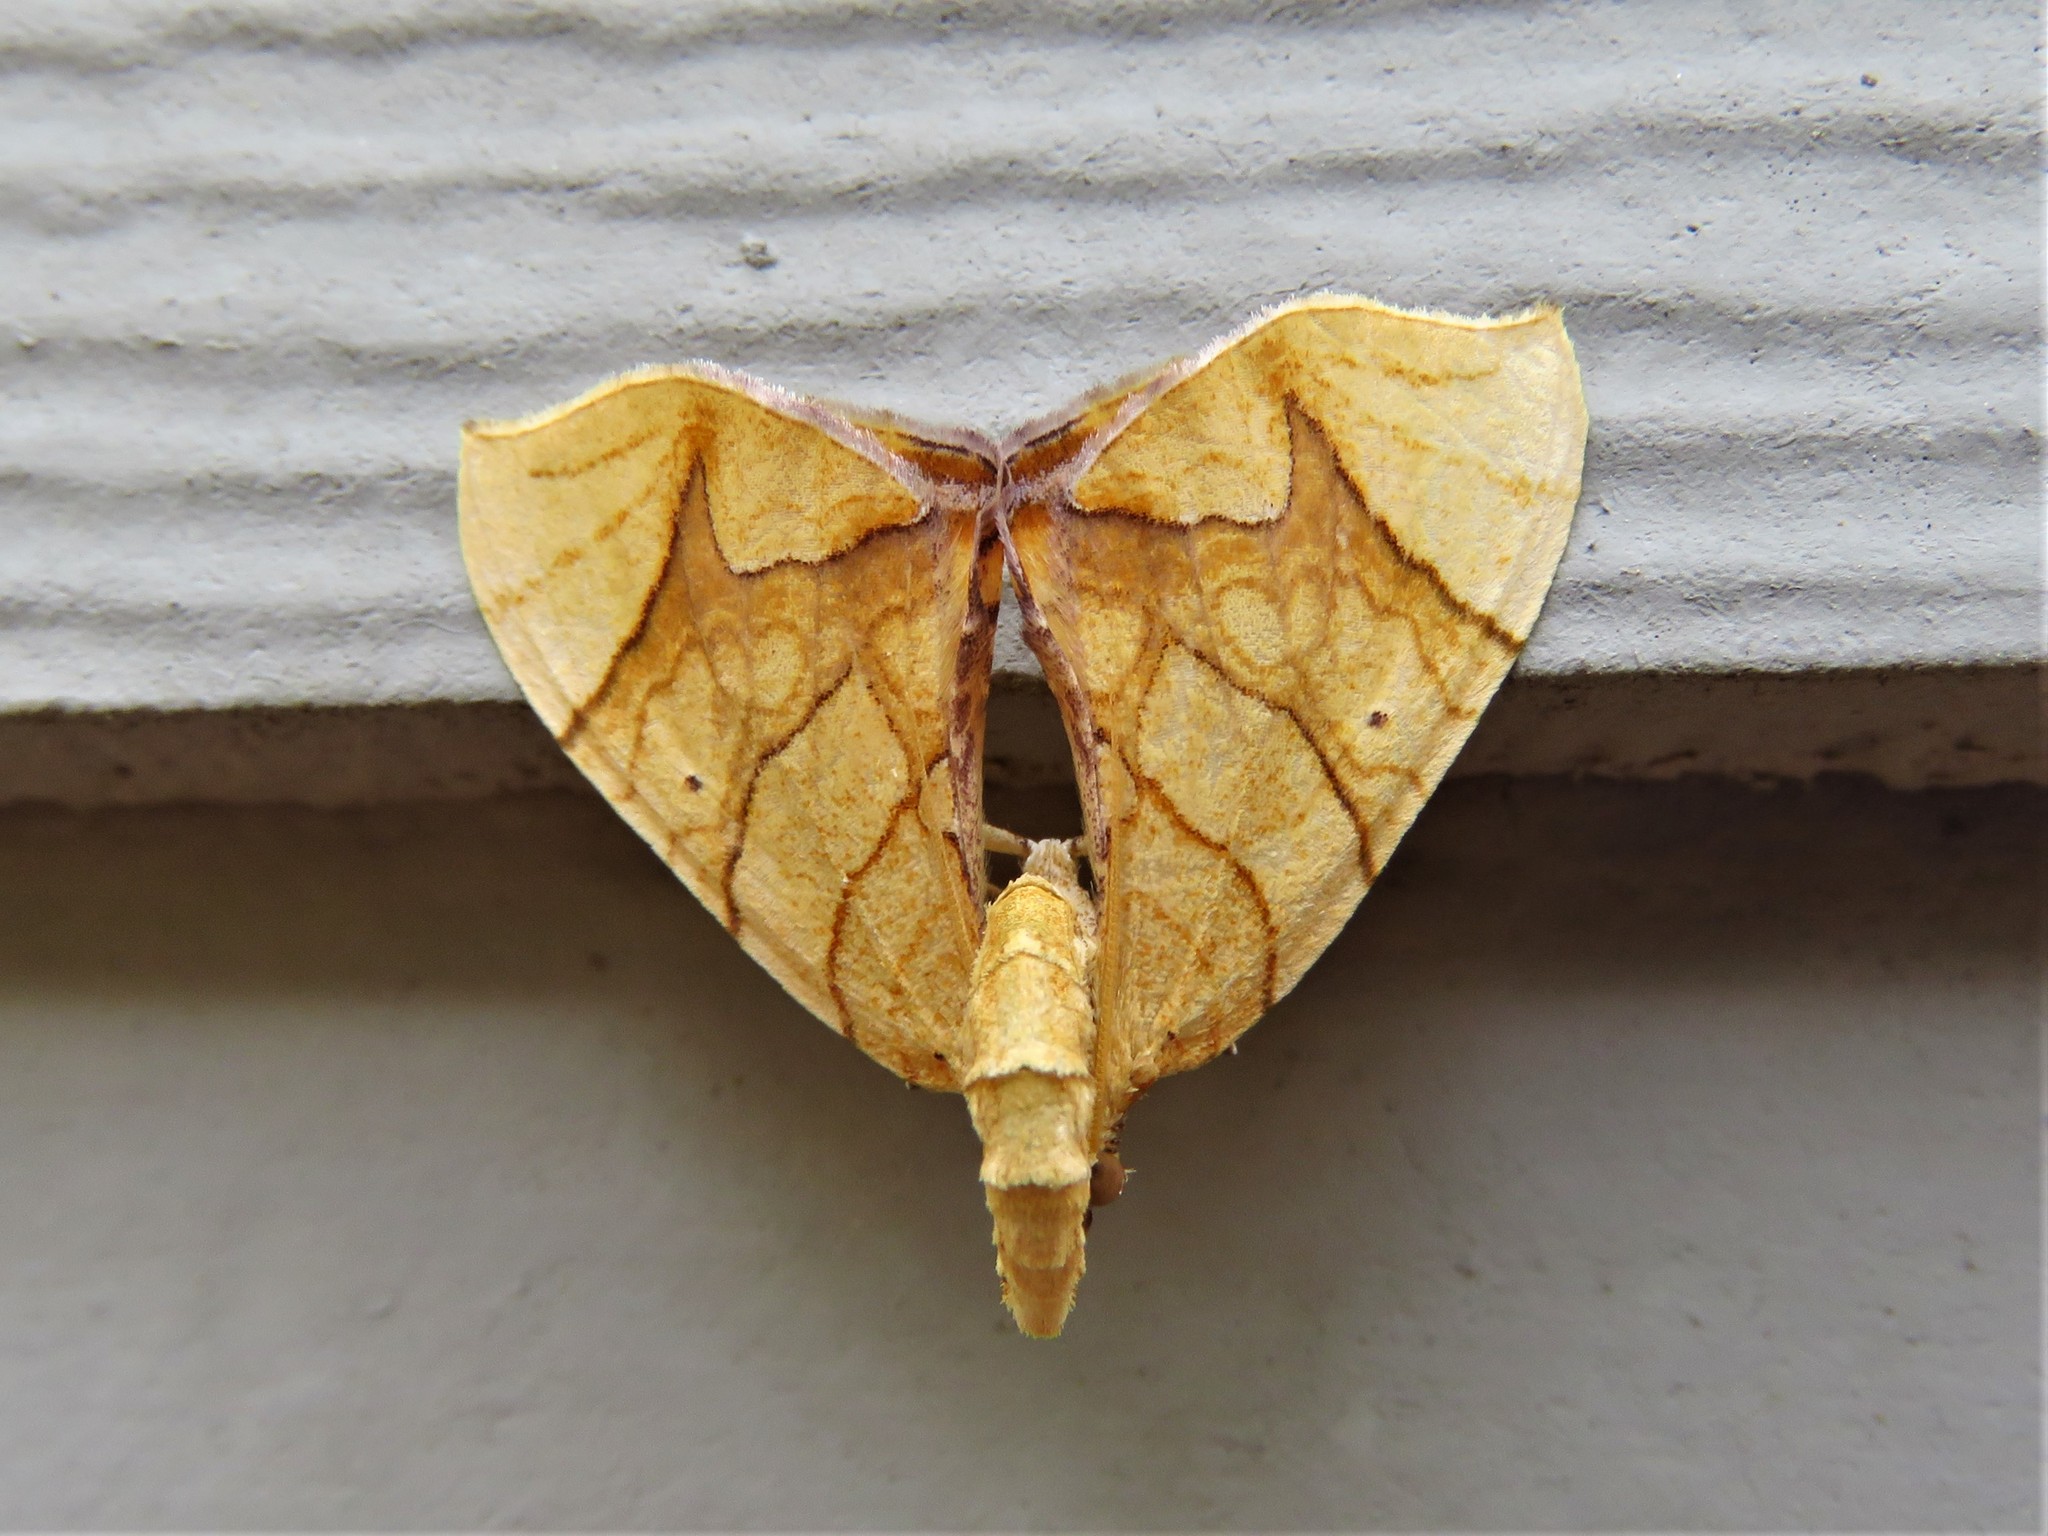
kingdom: Animalia
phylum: Arthropoda
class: Insecta
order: Lepidoptera
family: Geometridae
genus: Eulithis
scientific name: Eulithis
